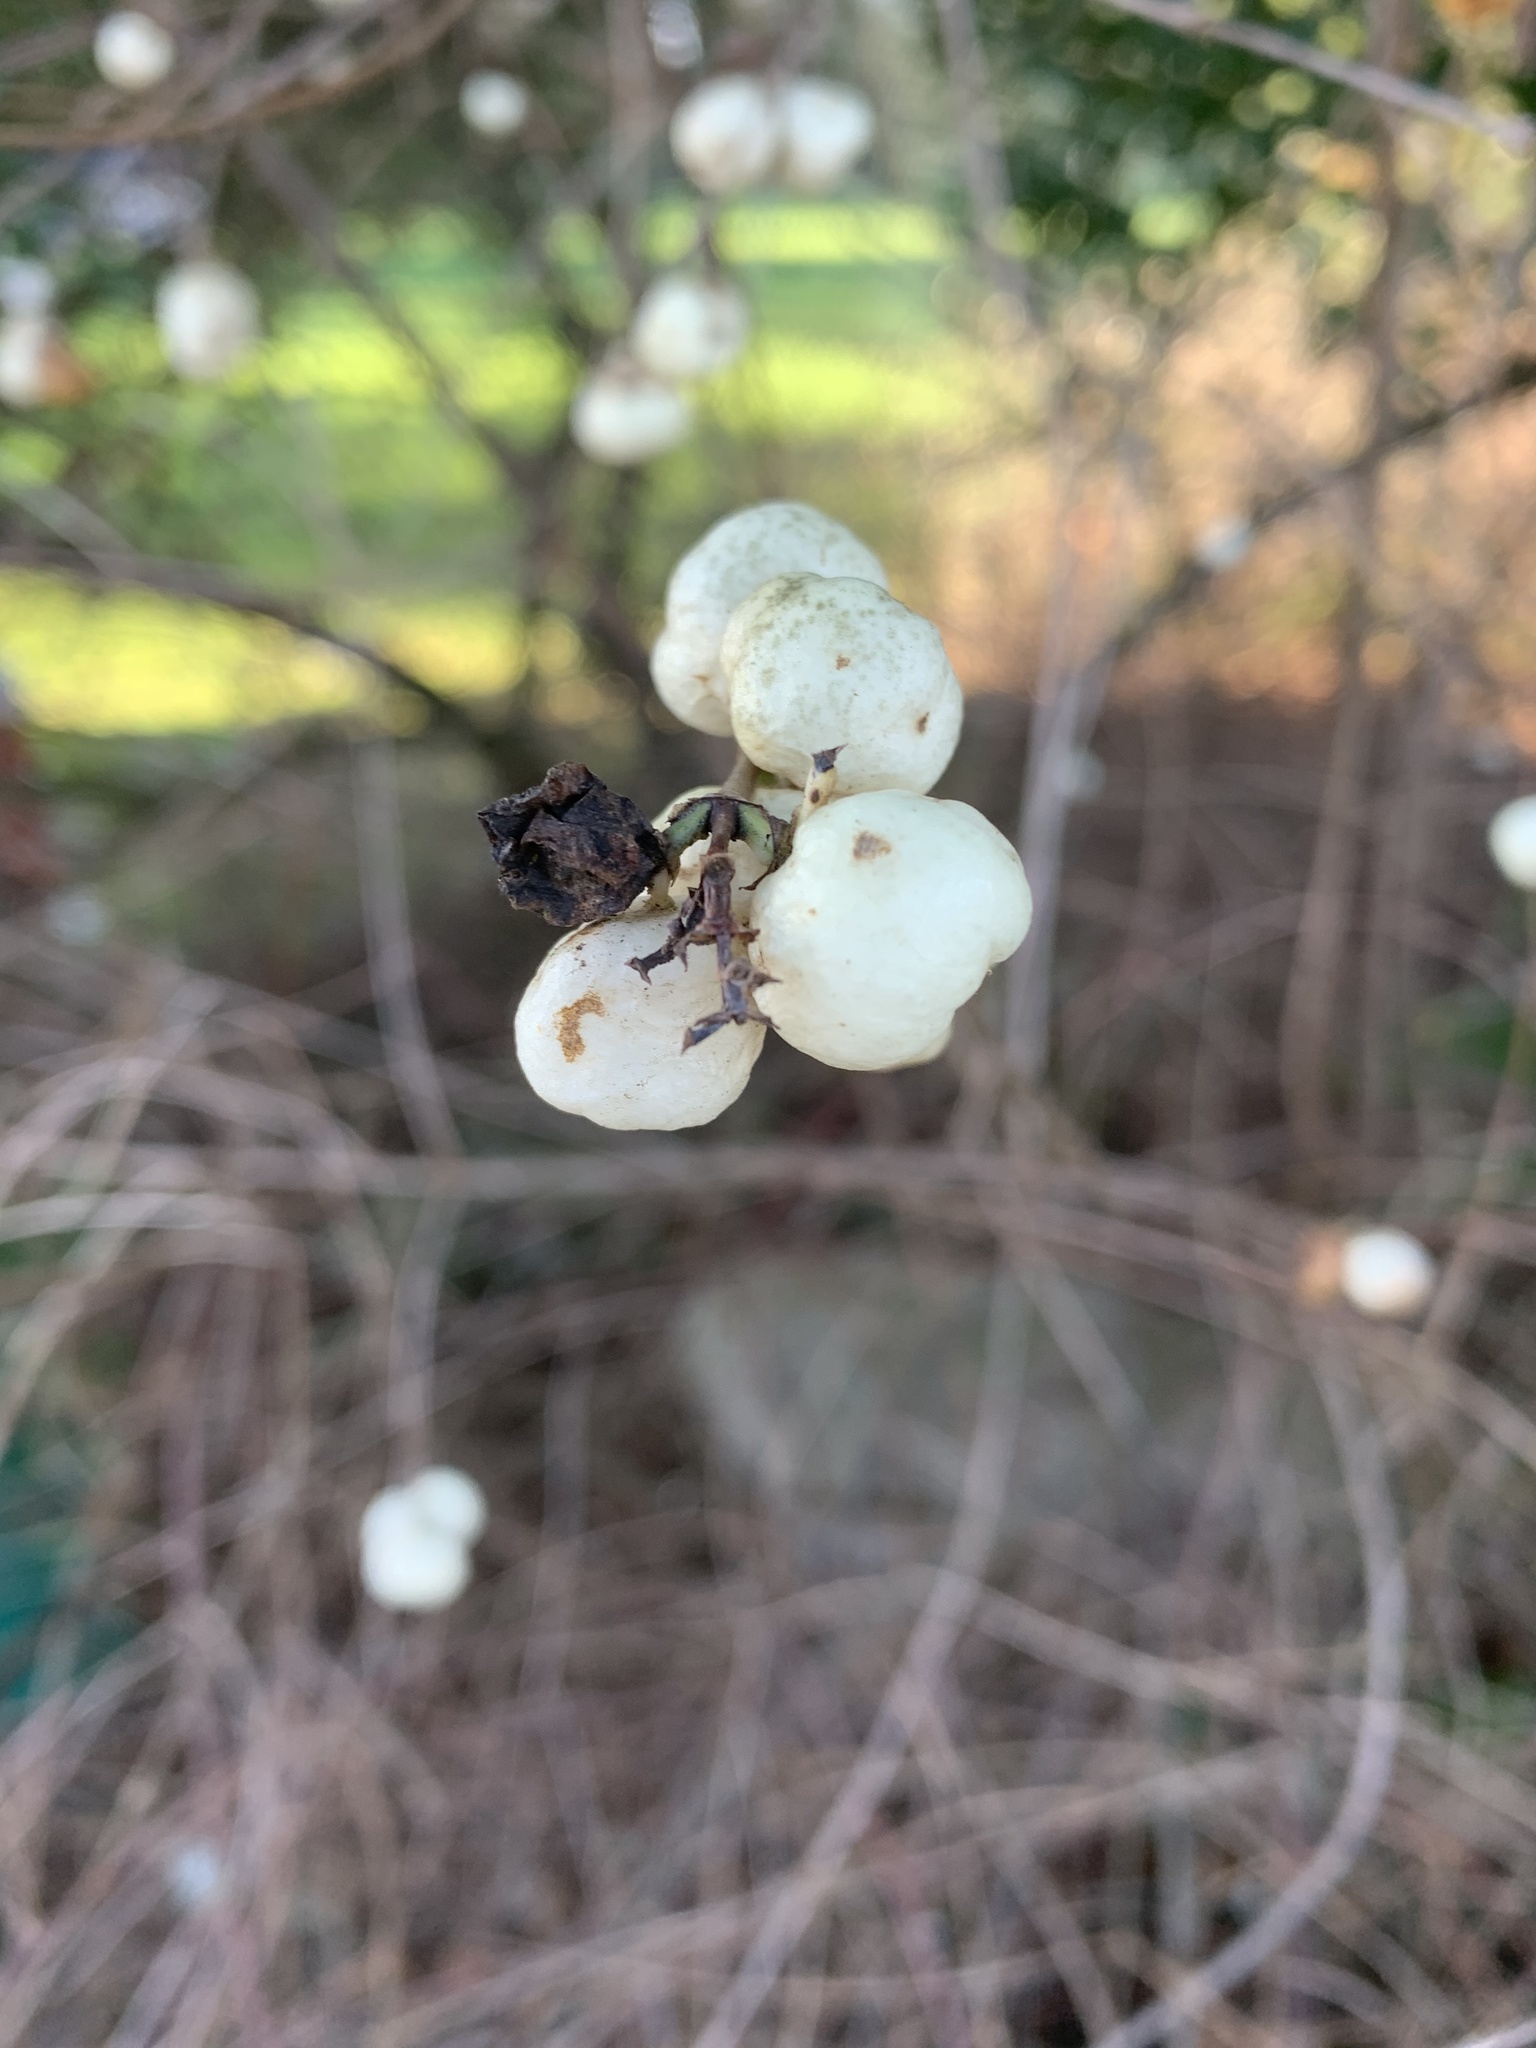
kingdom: Plantae
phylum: Tracheophyta
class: Magnoliopsida
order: Dipsacales
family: Caprifoliaceae
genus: Symphoricarpos
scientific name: Symphoricarpos albus
